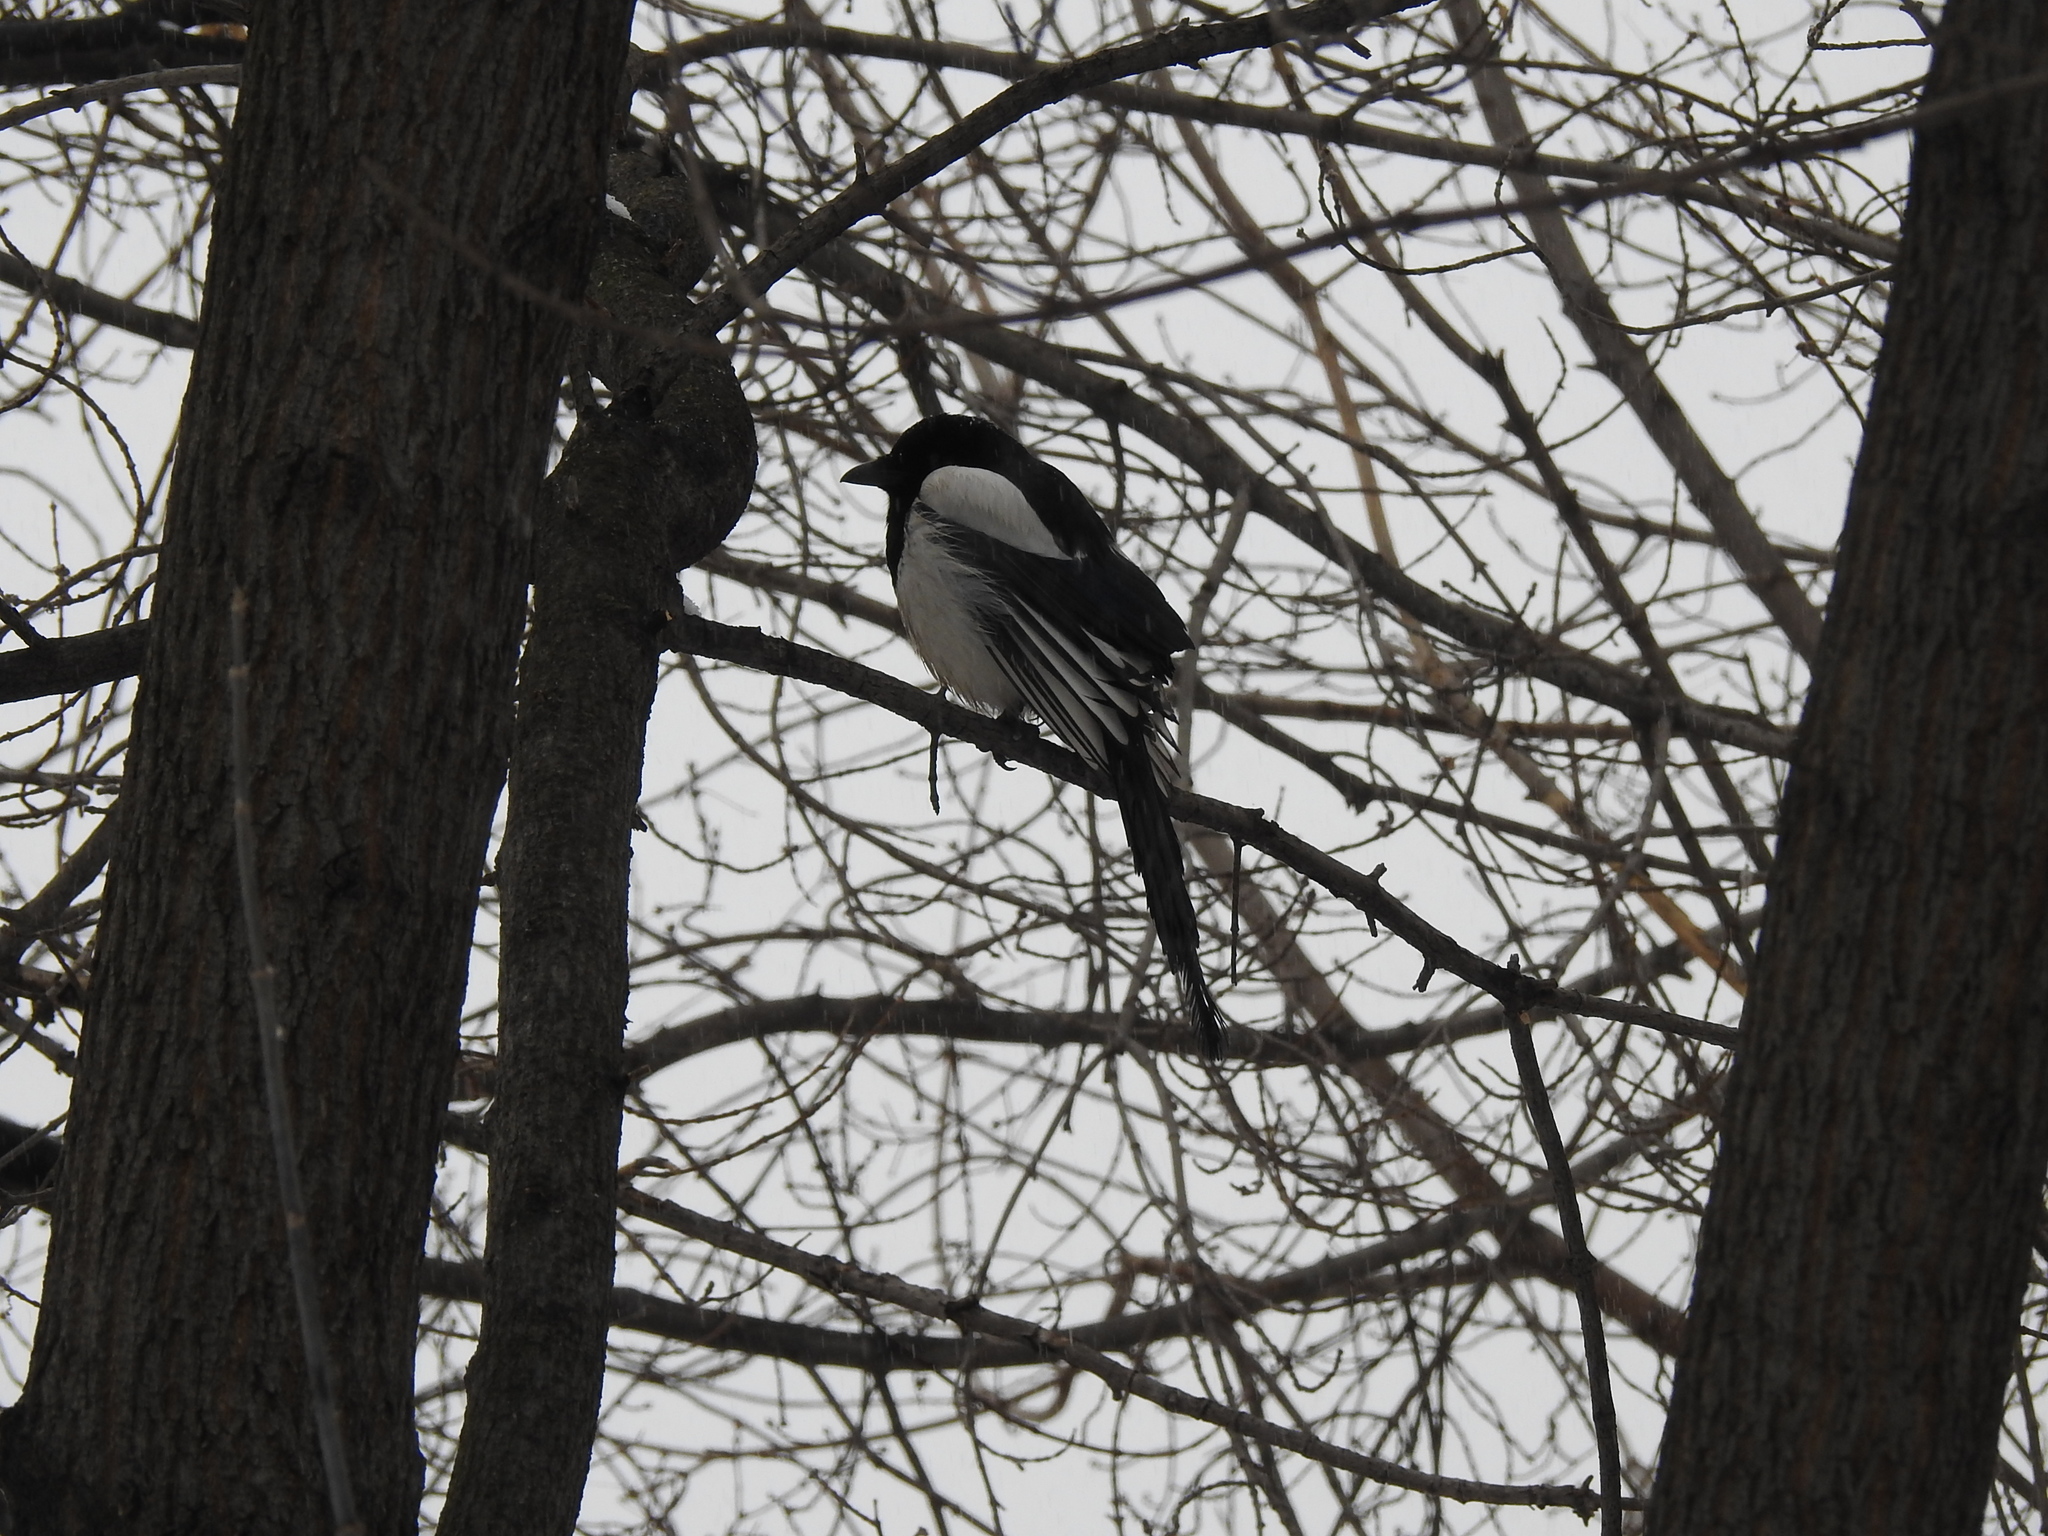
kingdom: Animalia
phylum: Chordata
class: Aves
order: Passeriformes
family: Corvidae
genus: Pica
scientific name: Pica pica
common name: Eurasian magpie
